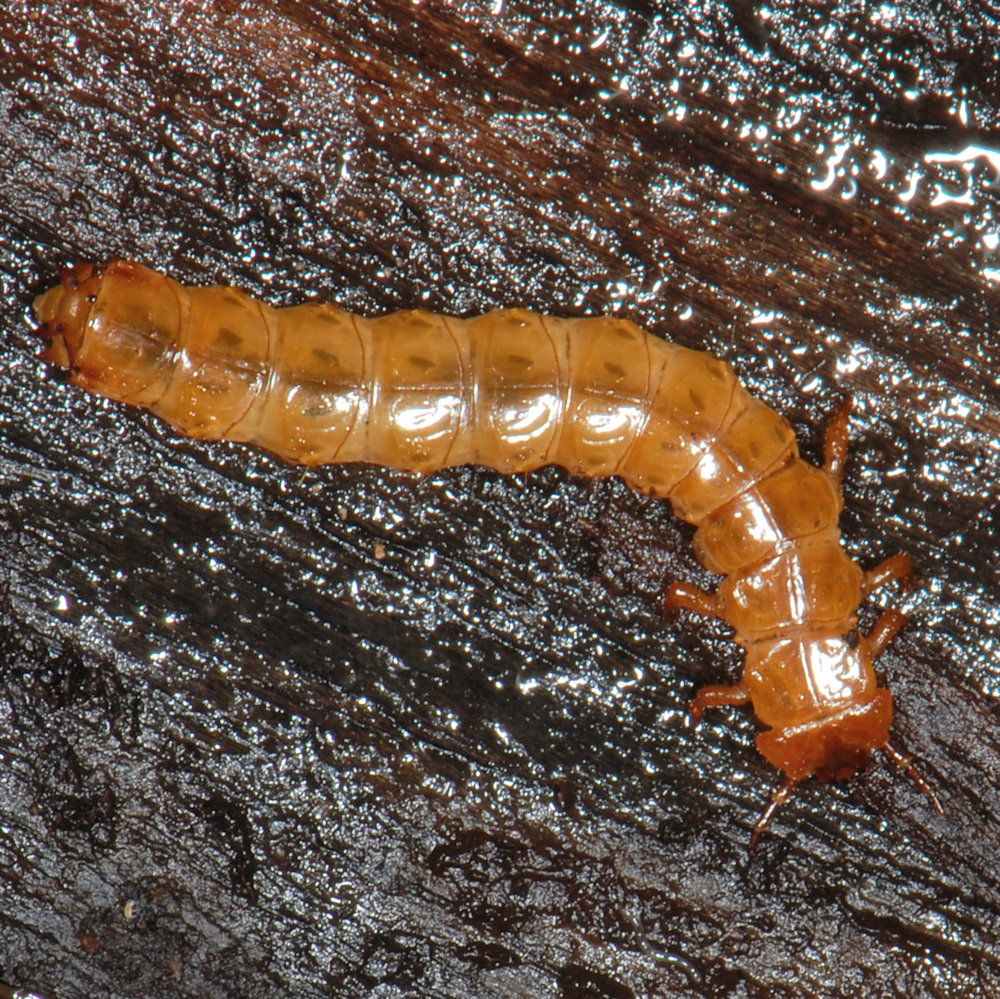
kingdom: Animalia
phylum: Arthropoda
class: Insecta
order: Coleoptera
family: Cucujidae
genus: Cucujus
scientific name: Cucujus clavipes
